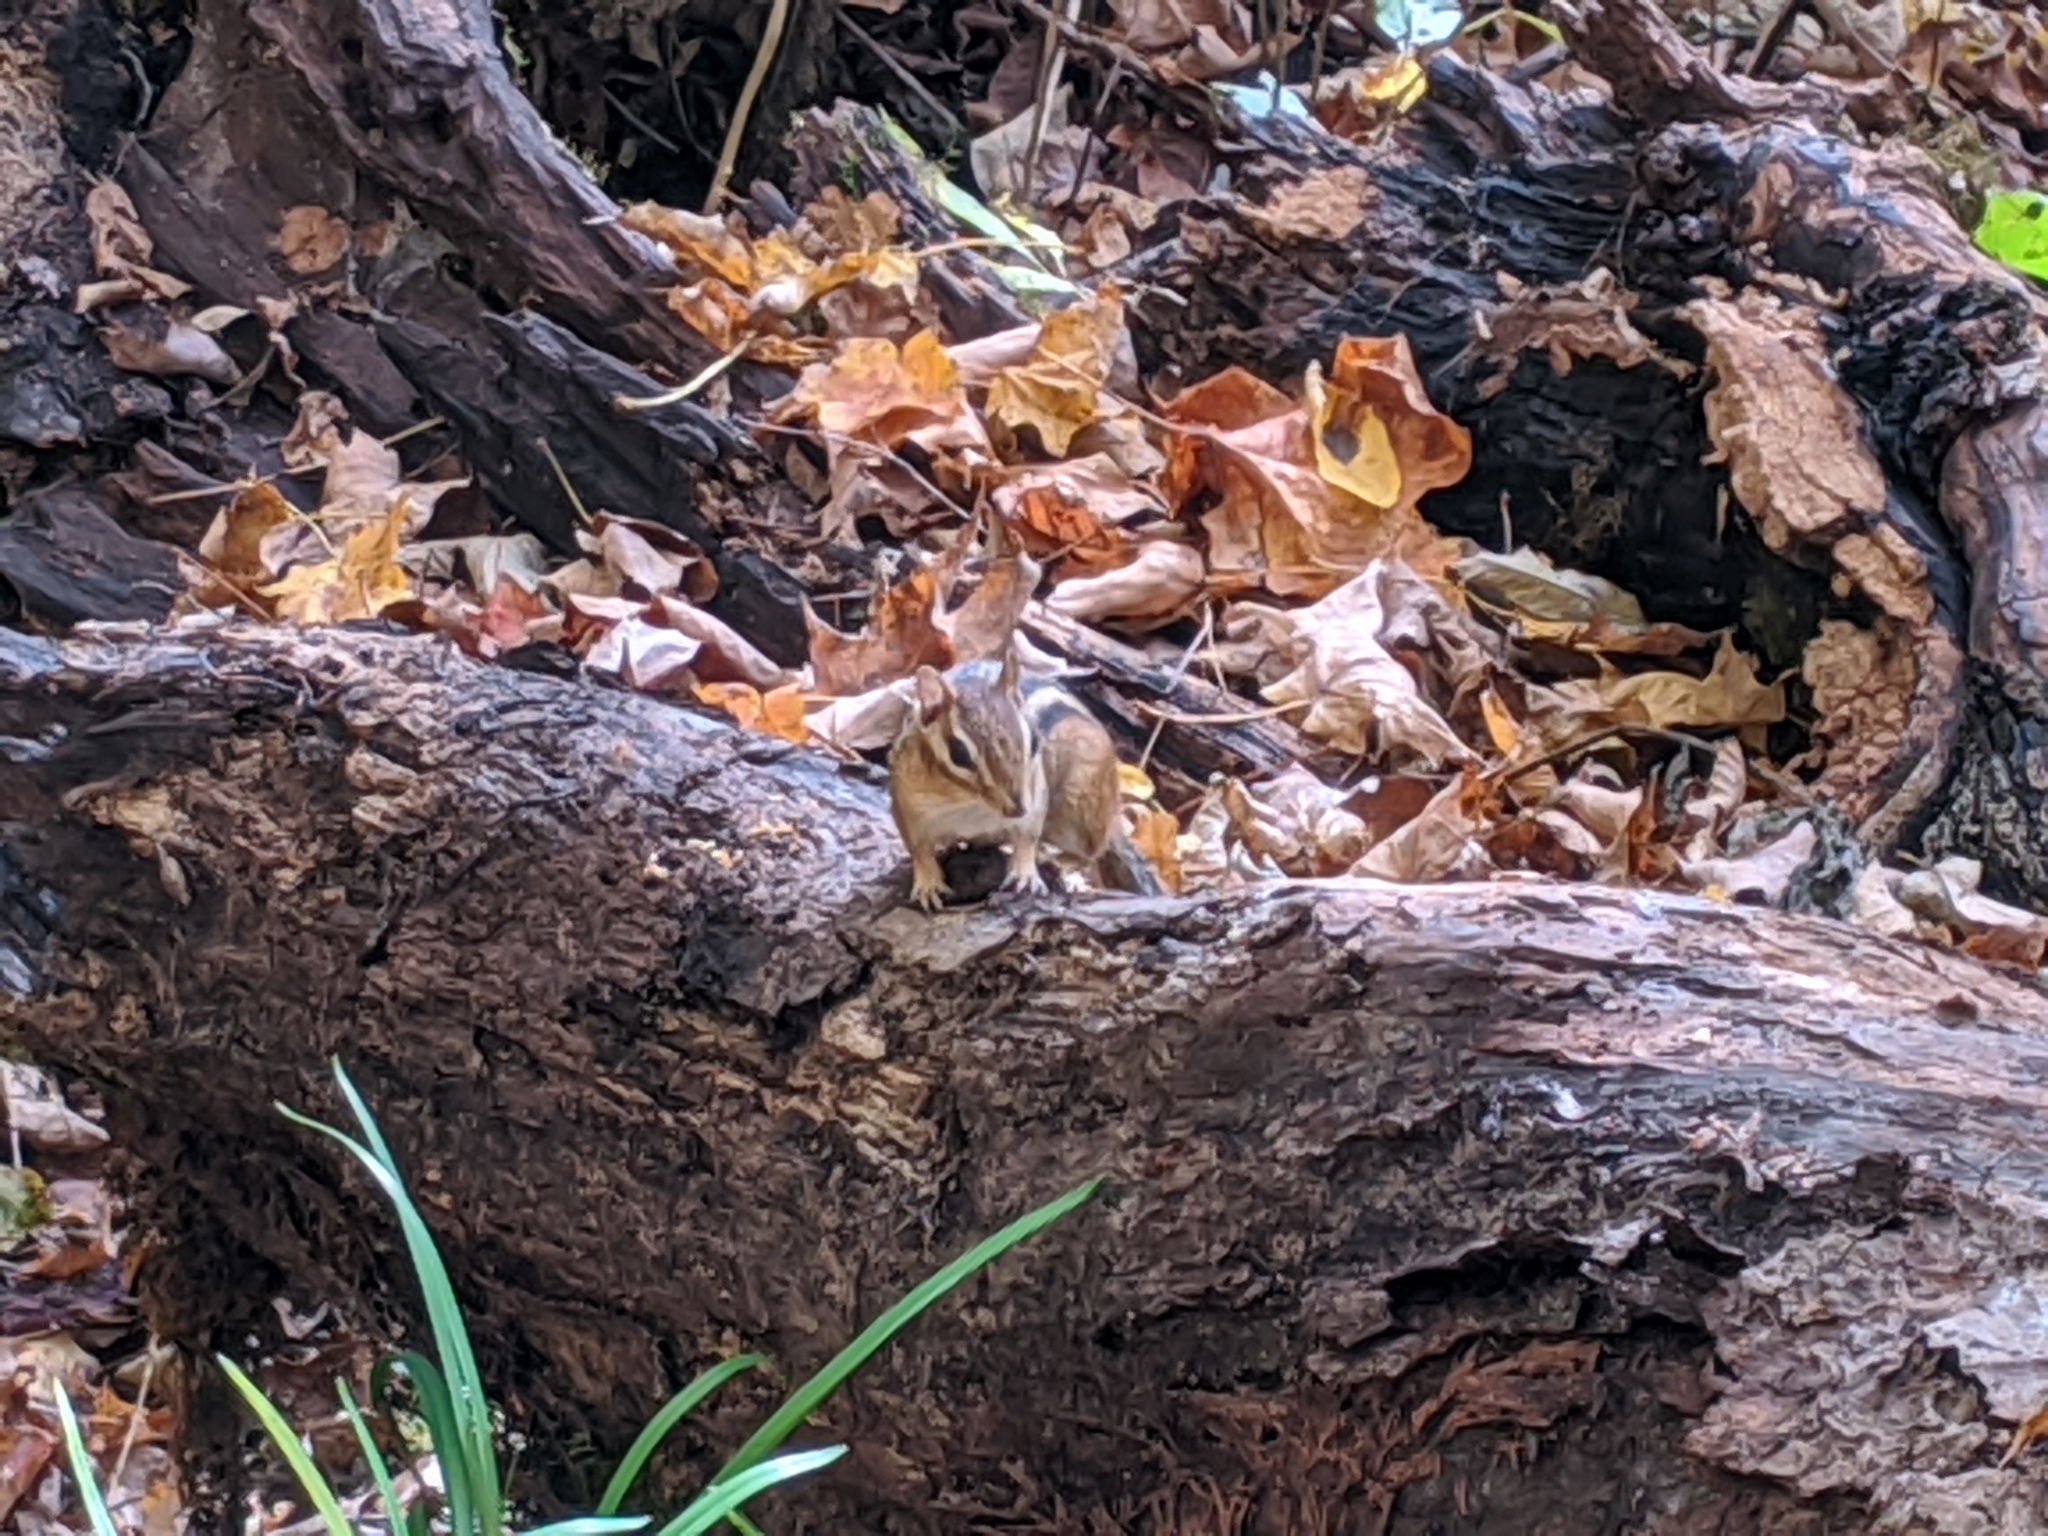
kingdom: Animalia
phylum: Chordata
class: Mammalia
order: Rodentia
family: Sciuridae
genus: Tamias
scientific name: Tamias striatus
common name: Eastern chipmunk
